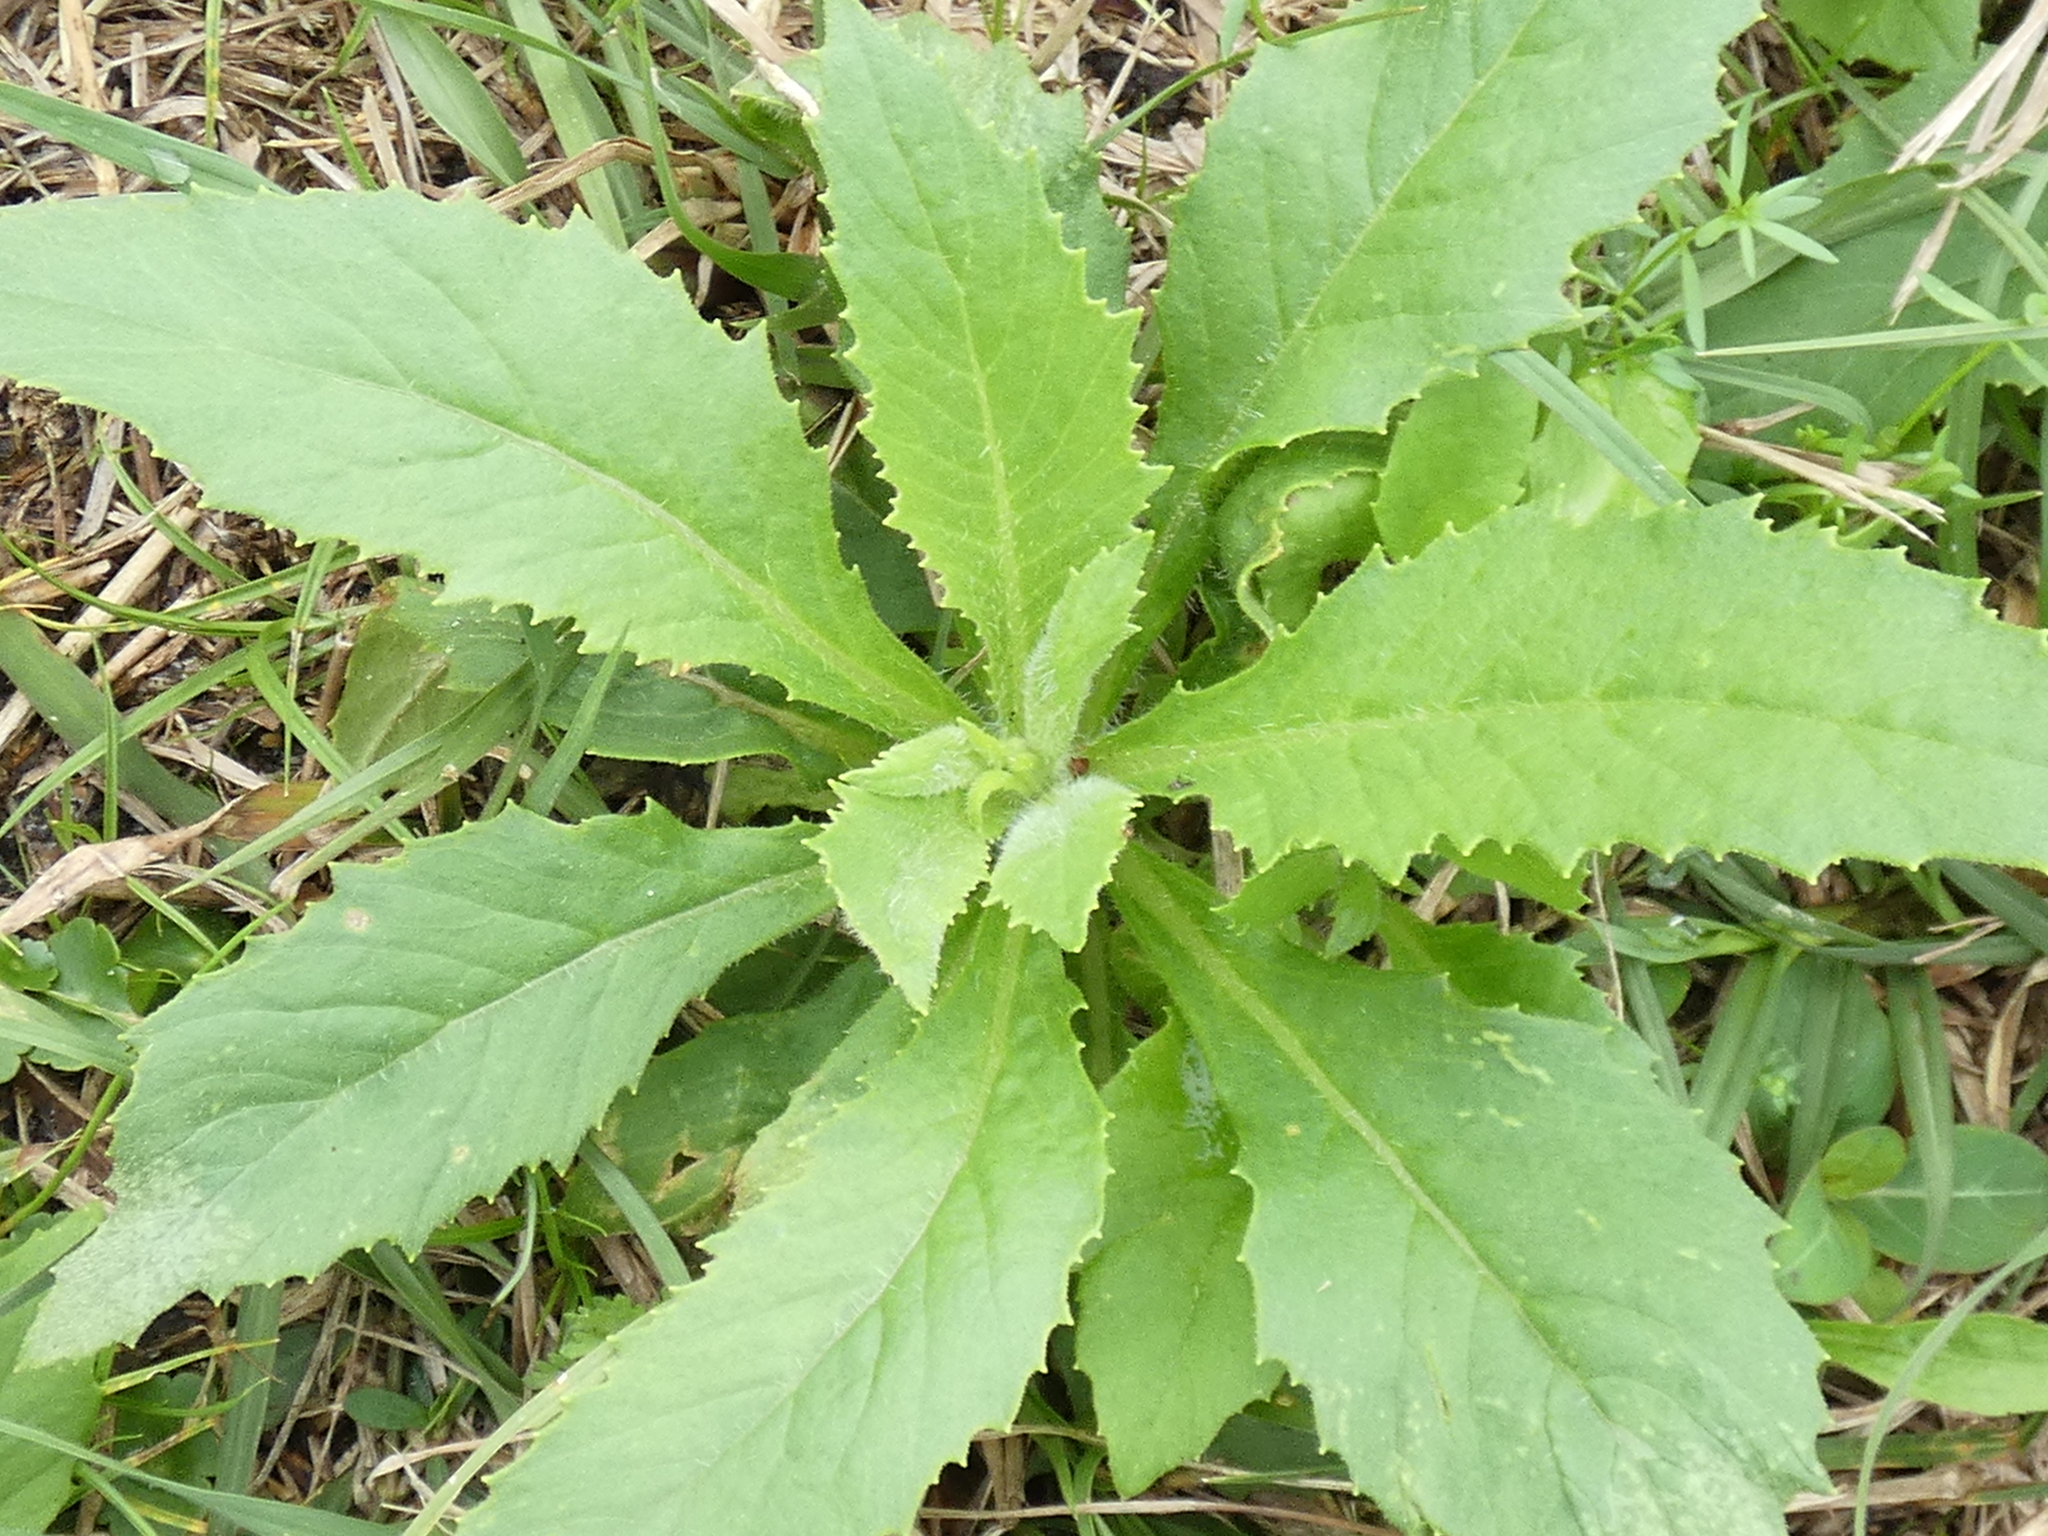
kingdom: Plantae
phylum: Tracheophyta
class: Magnoliopsida
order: Asterales
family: Asteraceae
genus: Erechtites
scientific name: Erechtites hieraciifolius
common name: American burnweed
